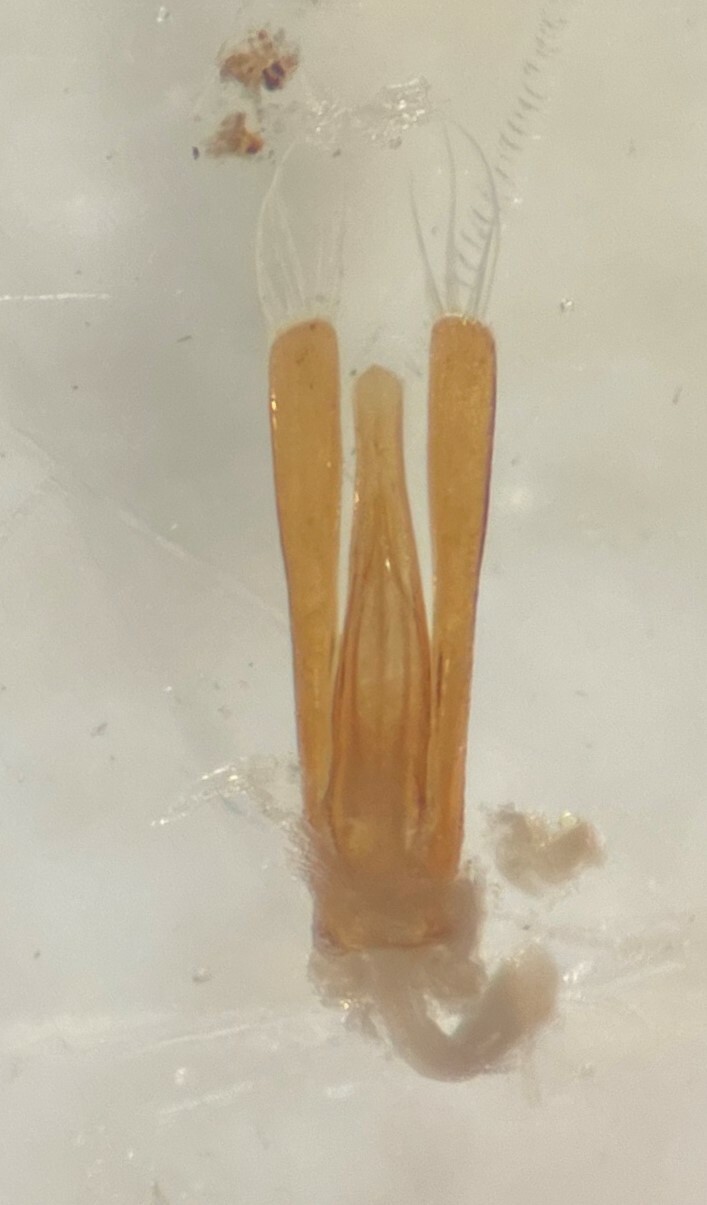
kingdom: Animalia
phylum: Arthropoda
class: Insecta
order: Coleoptera
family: Gyrinidae
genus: Gyrinus
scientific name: Gyrinus latilimbus
